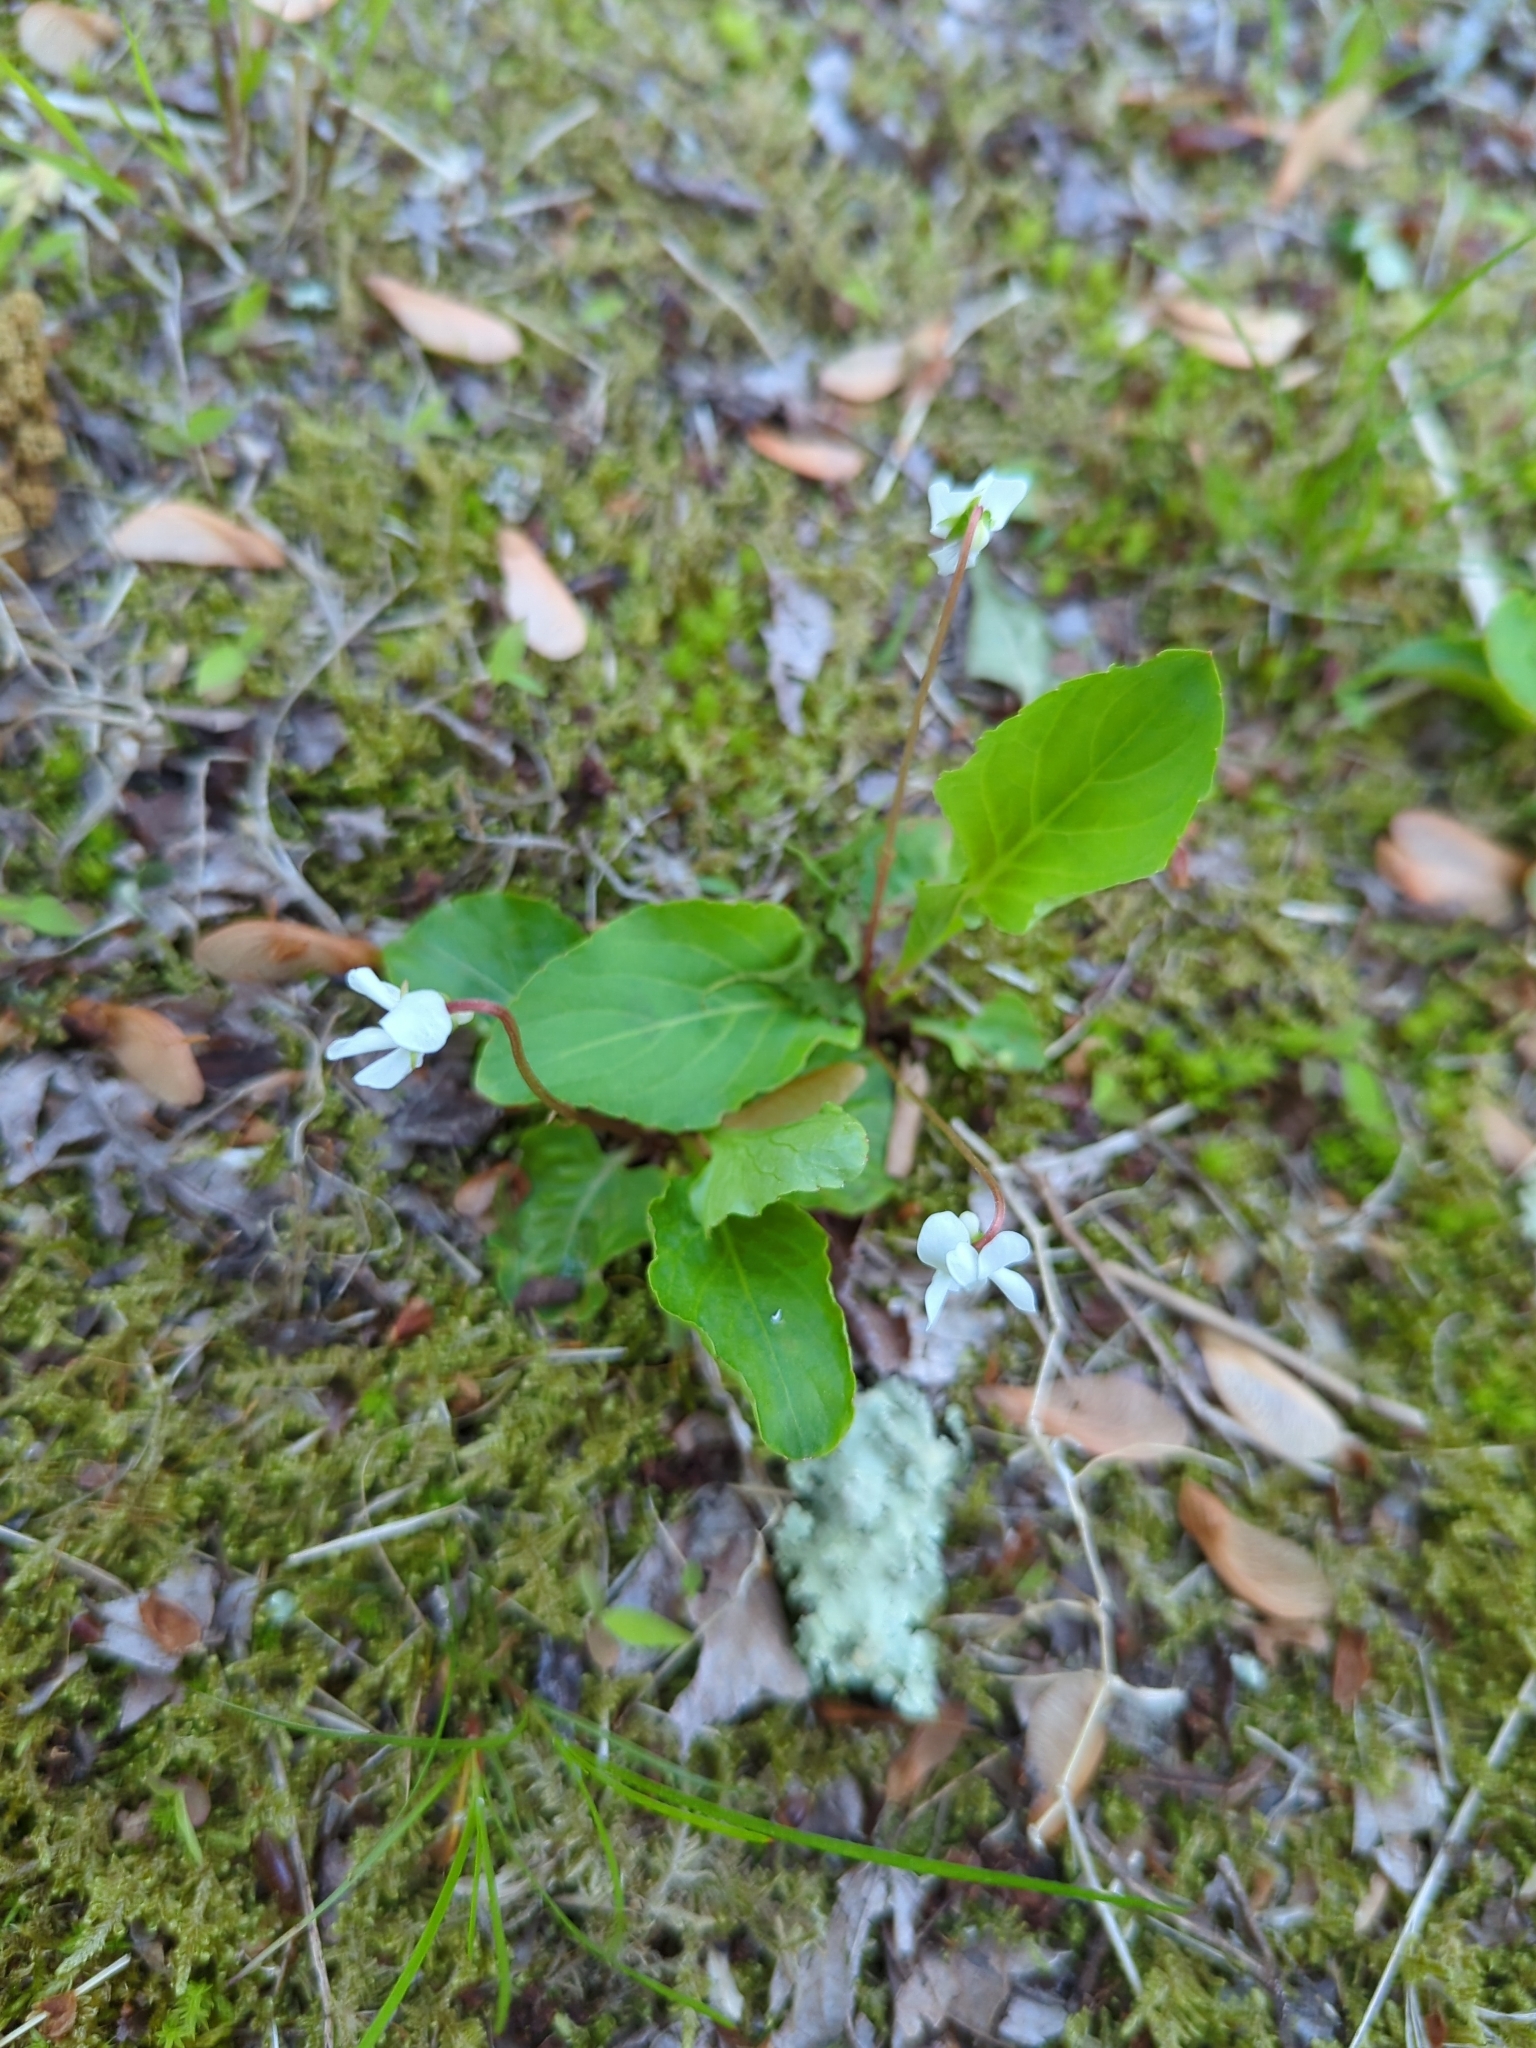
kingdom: Plantae
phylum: Tracheophyta
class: Magnoliopsida
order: Malpighiales
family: Violaceae
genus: Viola
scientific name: Viola primulifolia
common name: Primrose-leaf violet
